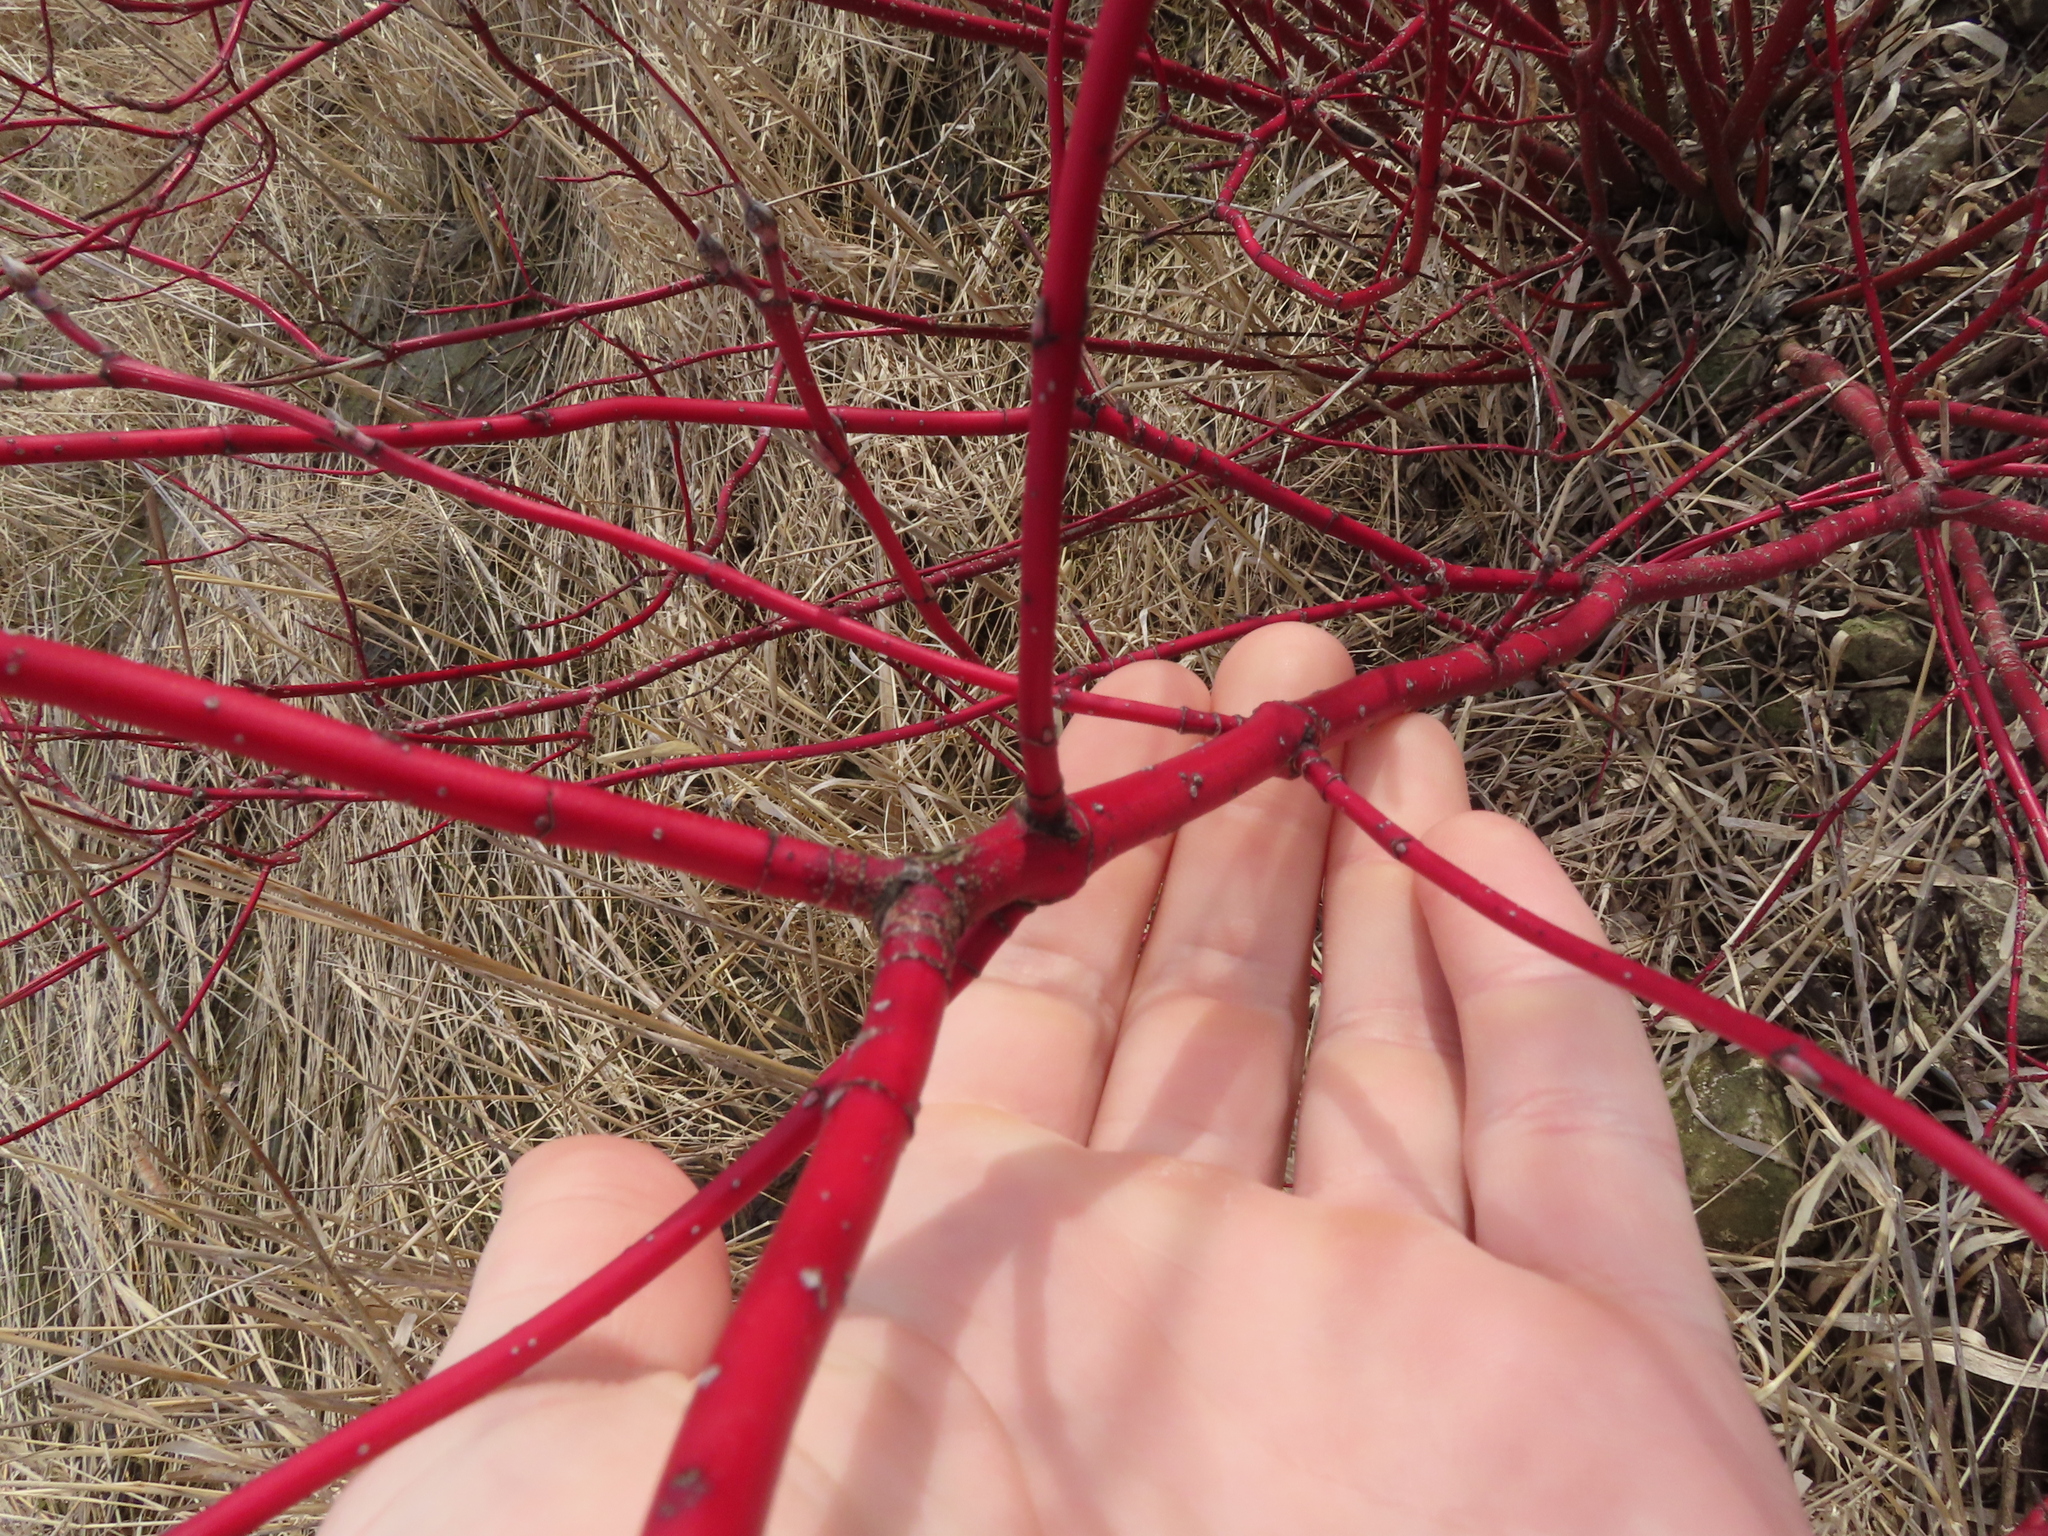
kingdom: Plantae
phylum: Tracheophyta
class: Magnoliopsida
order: Cornales
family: Cornaceae
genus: Cornus
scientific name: Cornus sericea
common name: Red-osier dogwood
